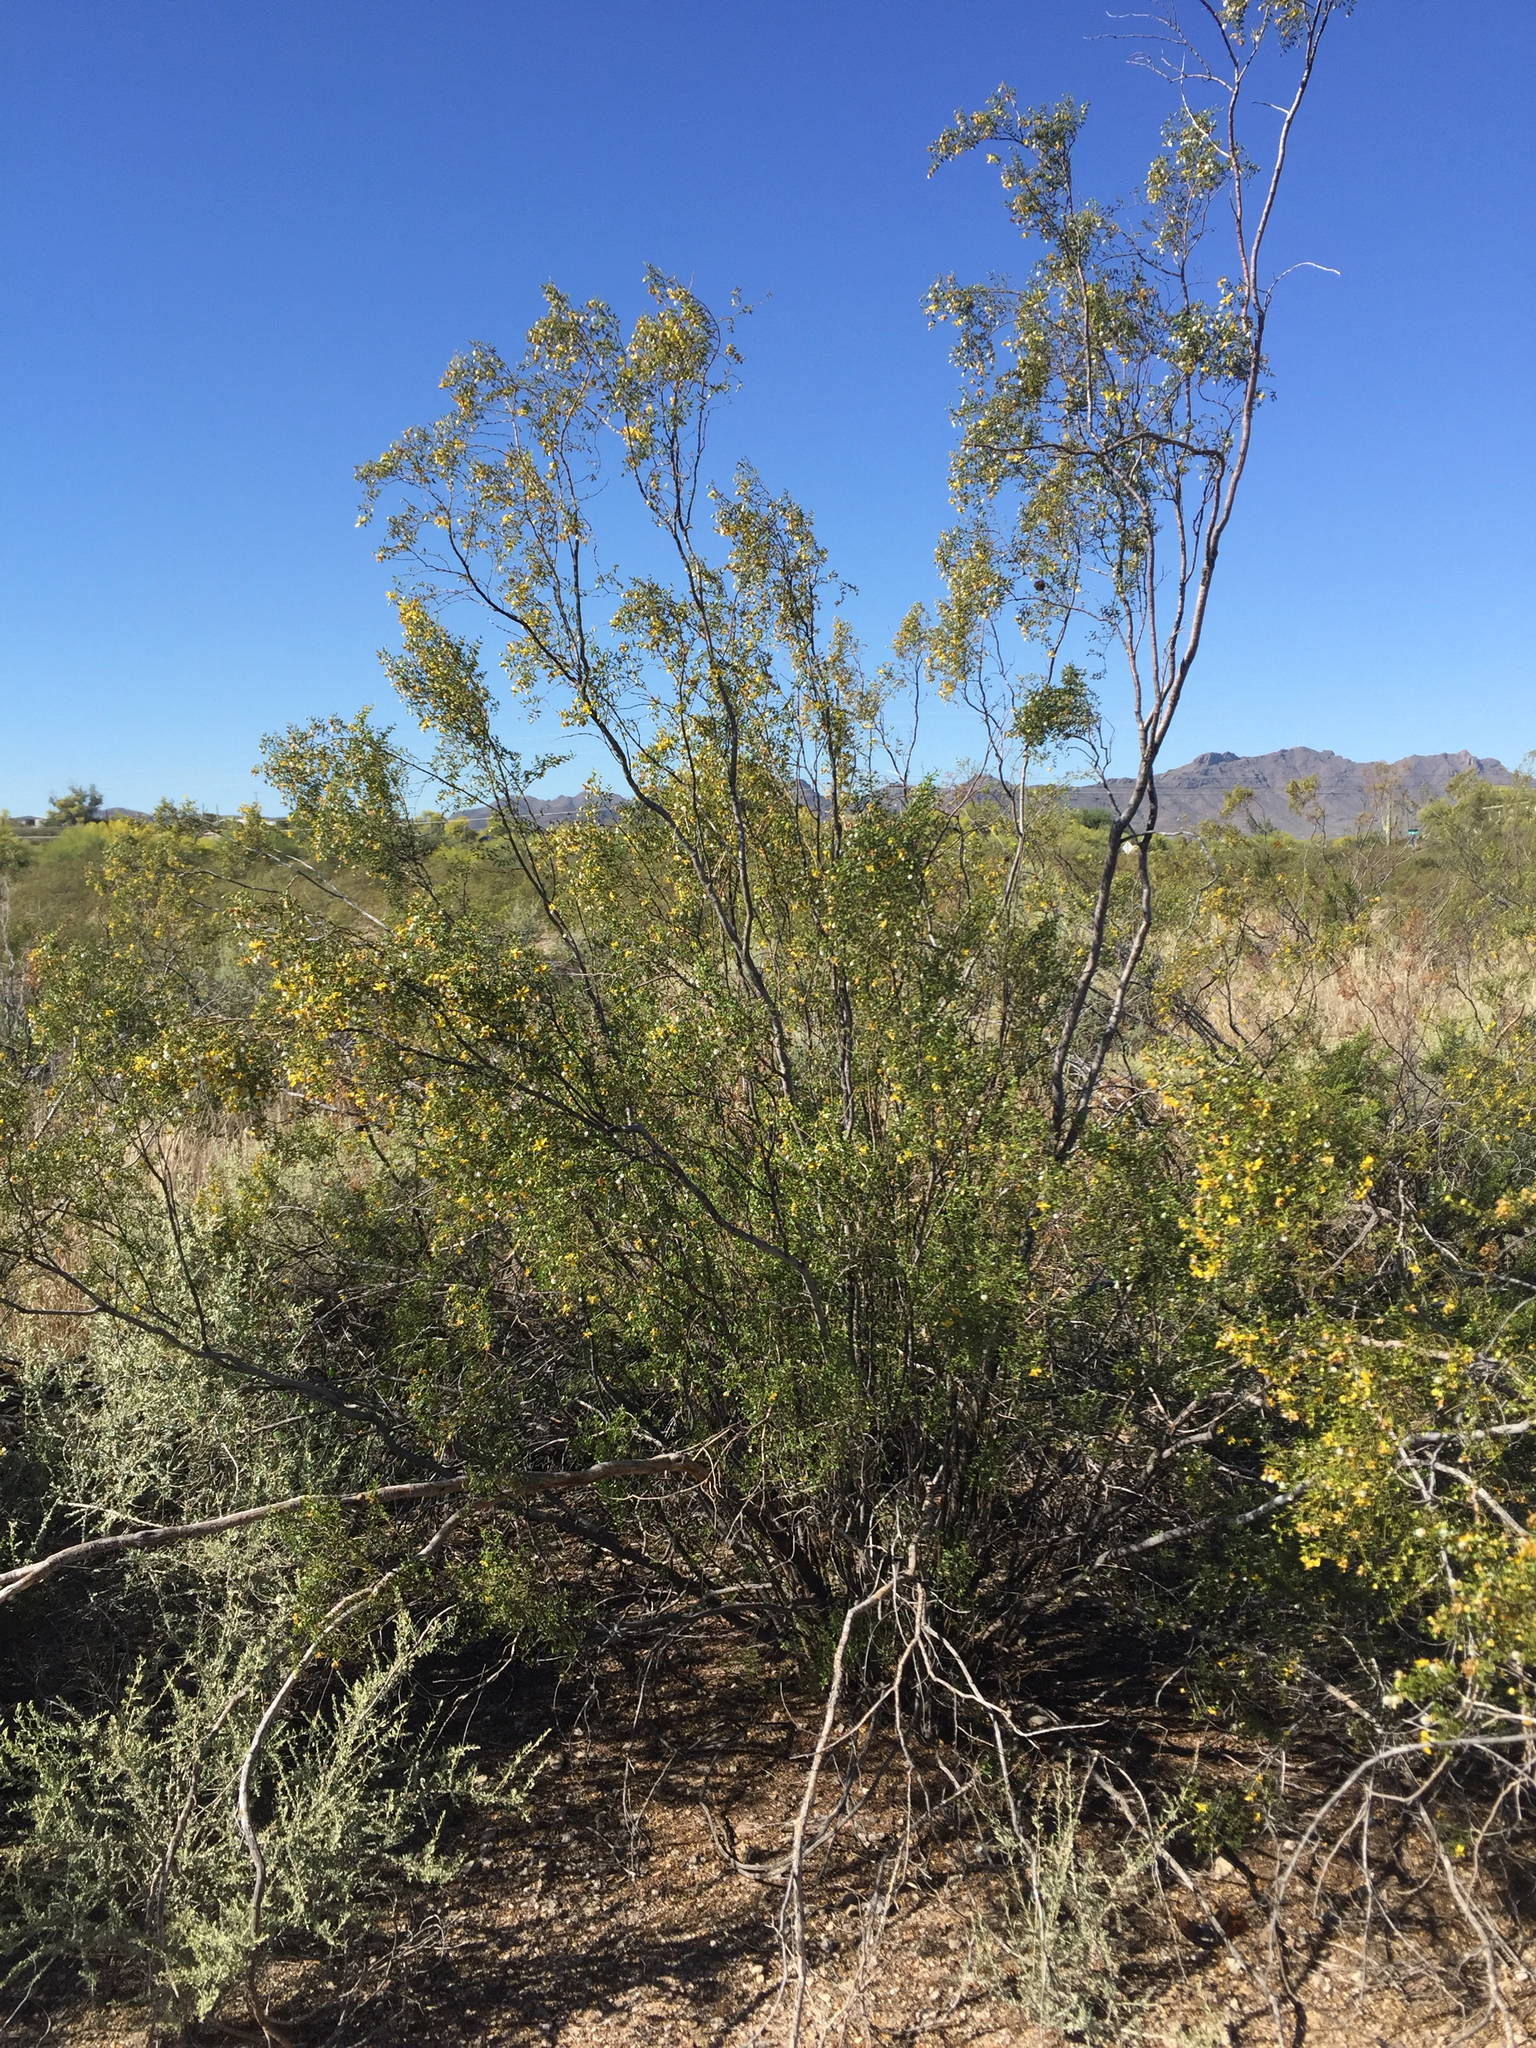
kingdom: Plantae
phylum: Tracheophyta
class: Magnoliopsida
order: Zygophyllales
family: Zygophyllaceae
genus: Larrea
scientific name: Larrea tridentata
